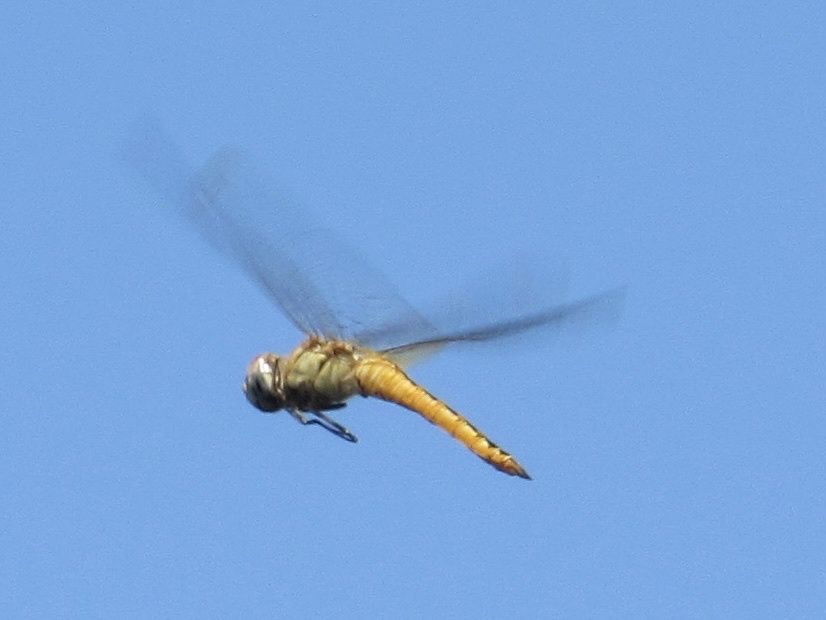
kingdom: Animalia
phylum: Arthropoda
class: Insecta
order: Odonata
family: Libellulidae
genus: Pantala
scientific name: Pantala flavescens
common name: Wandering glider
